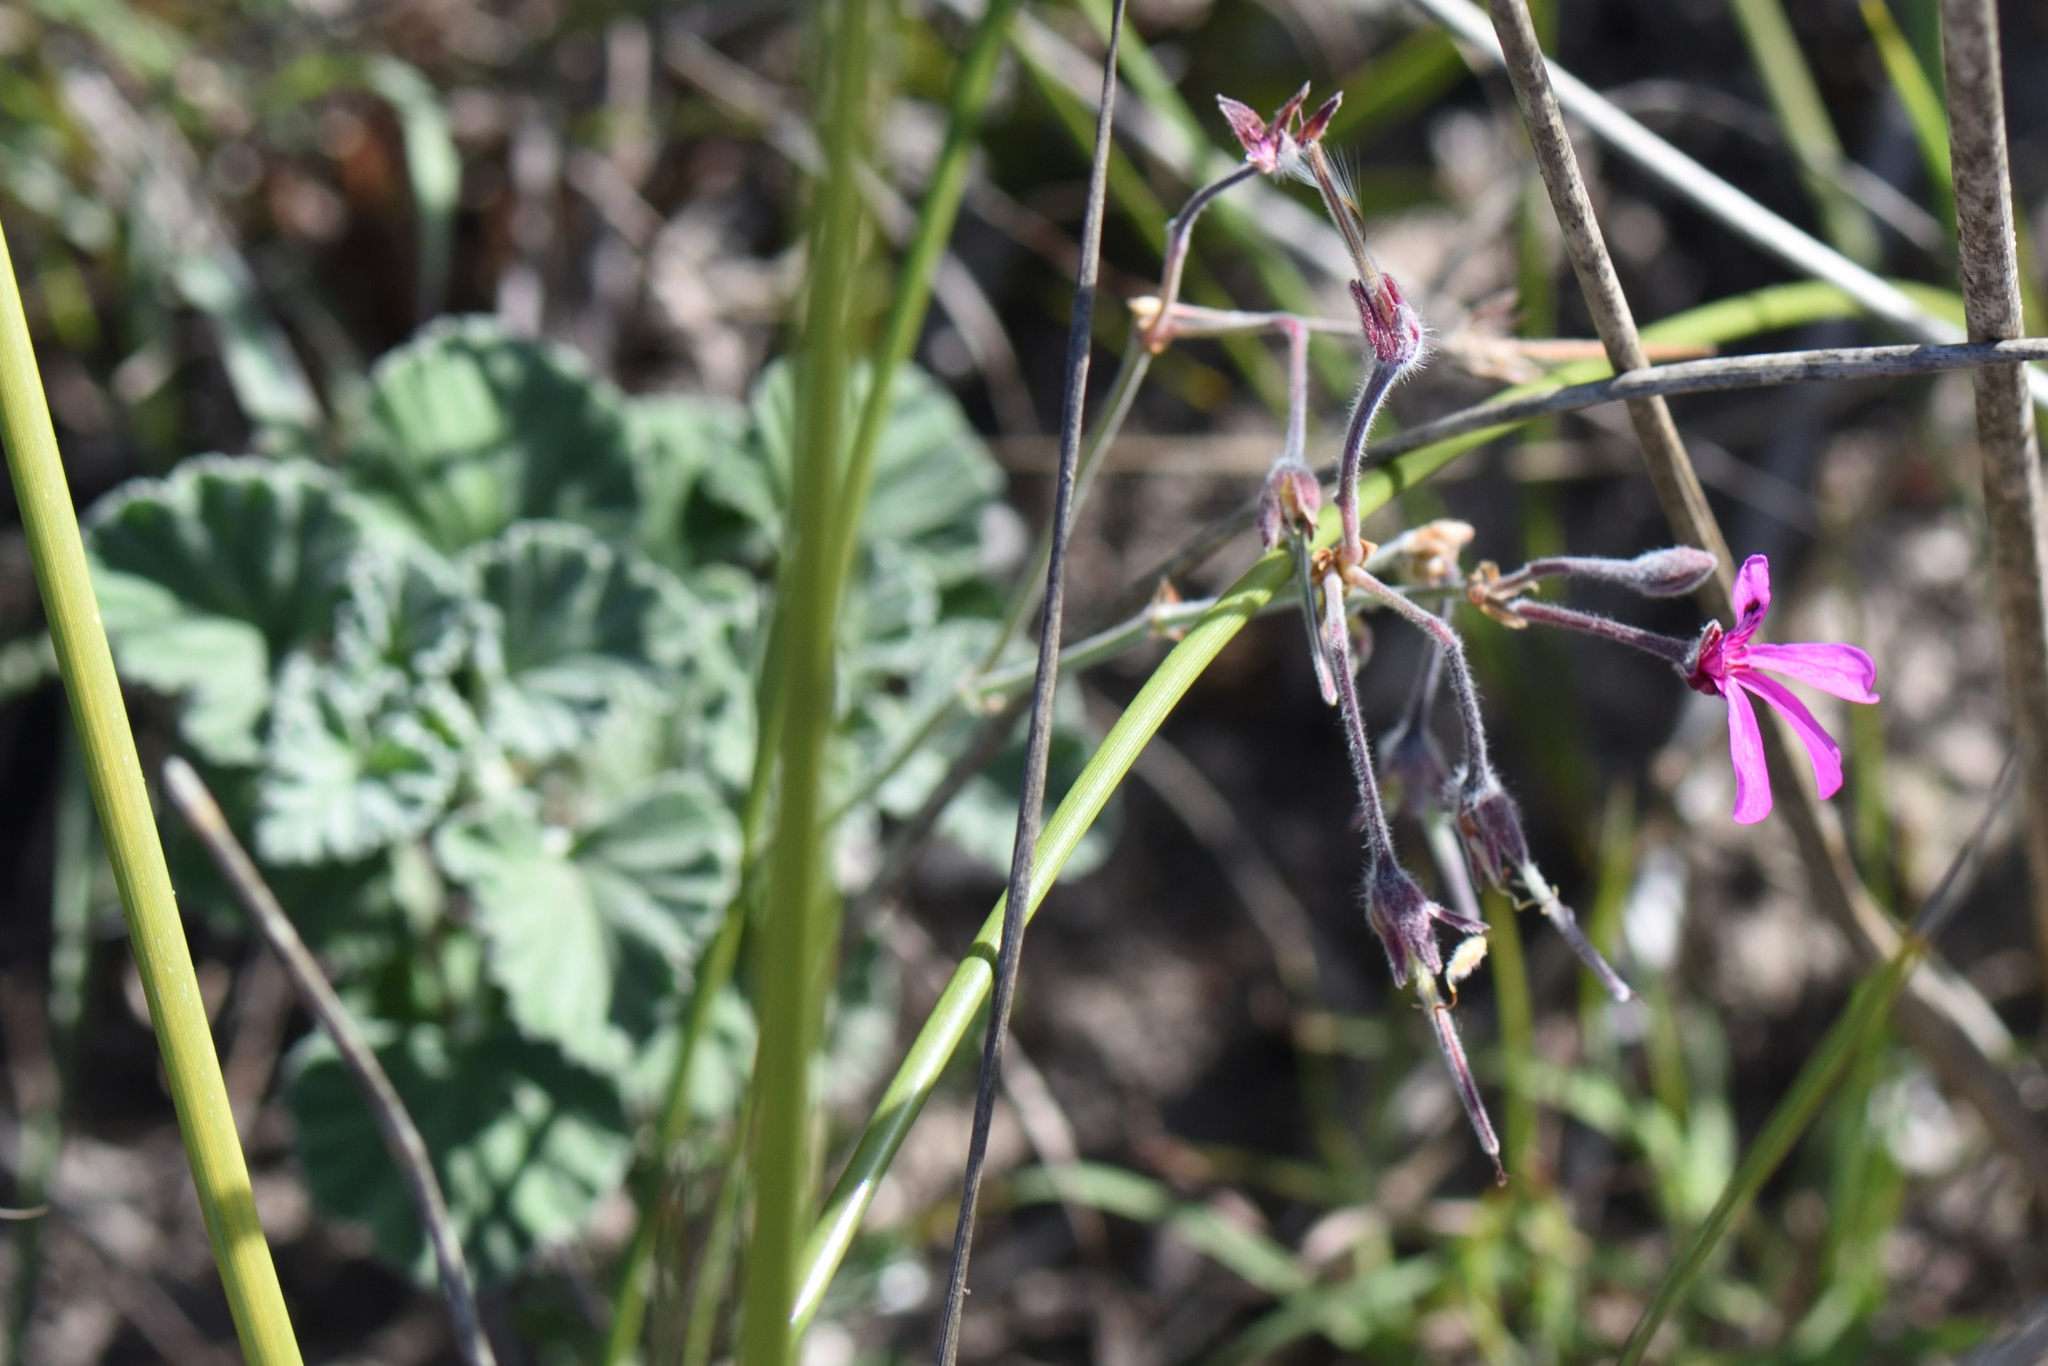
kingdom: Plantae
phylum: Tracheophyta
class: Magnoliopsida
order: Geraniales
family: Geraniaceae
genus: Pelargonium
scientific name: Pelargonium reniforme
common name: Kidney-leaf pelargonium
